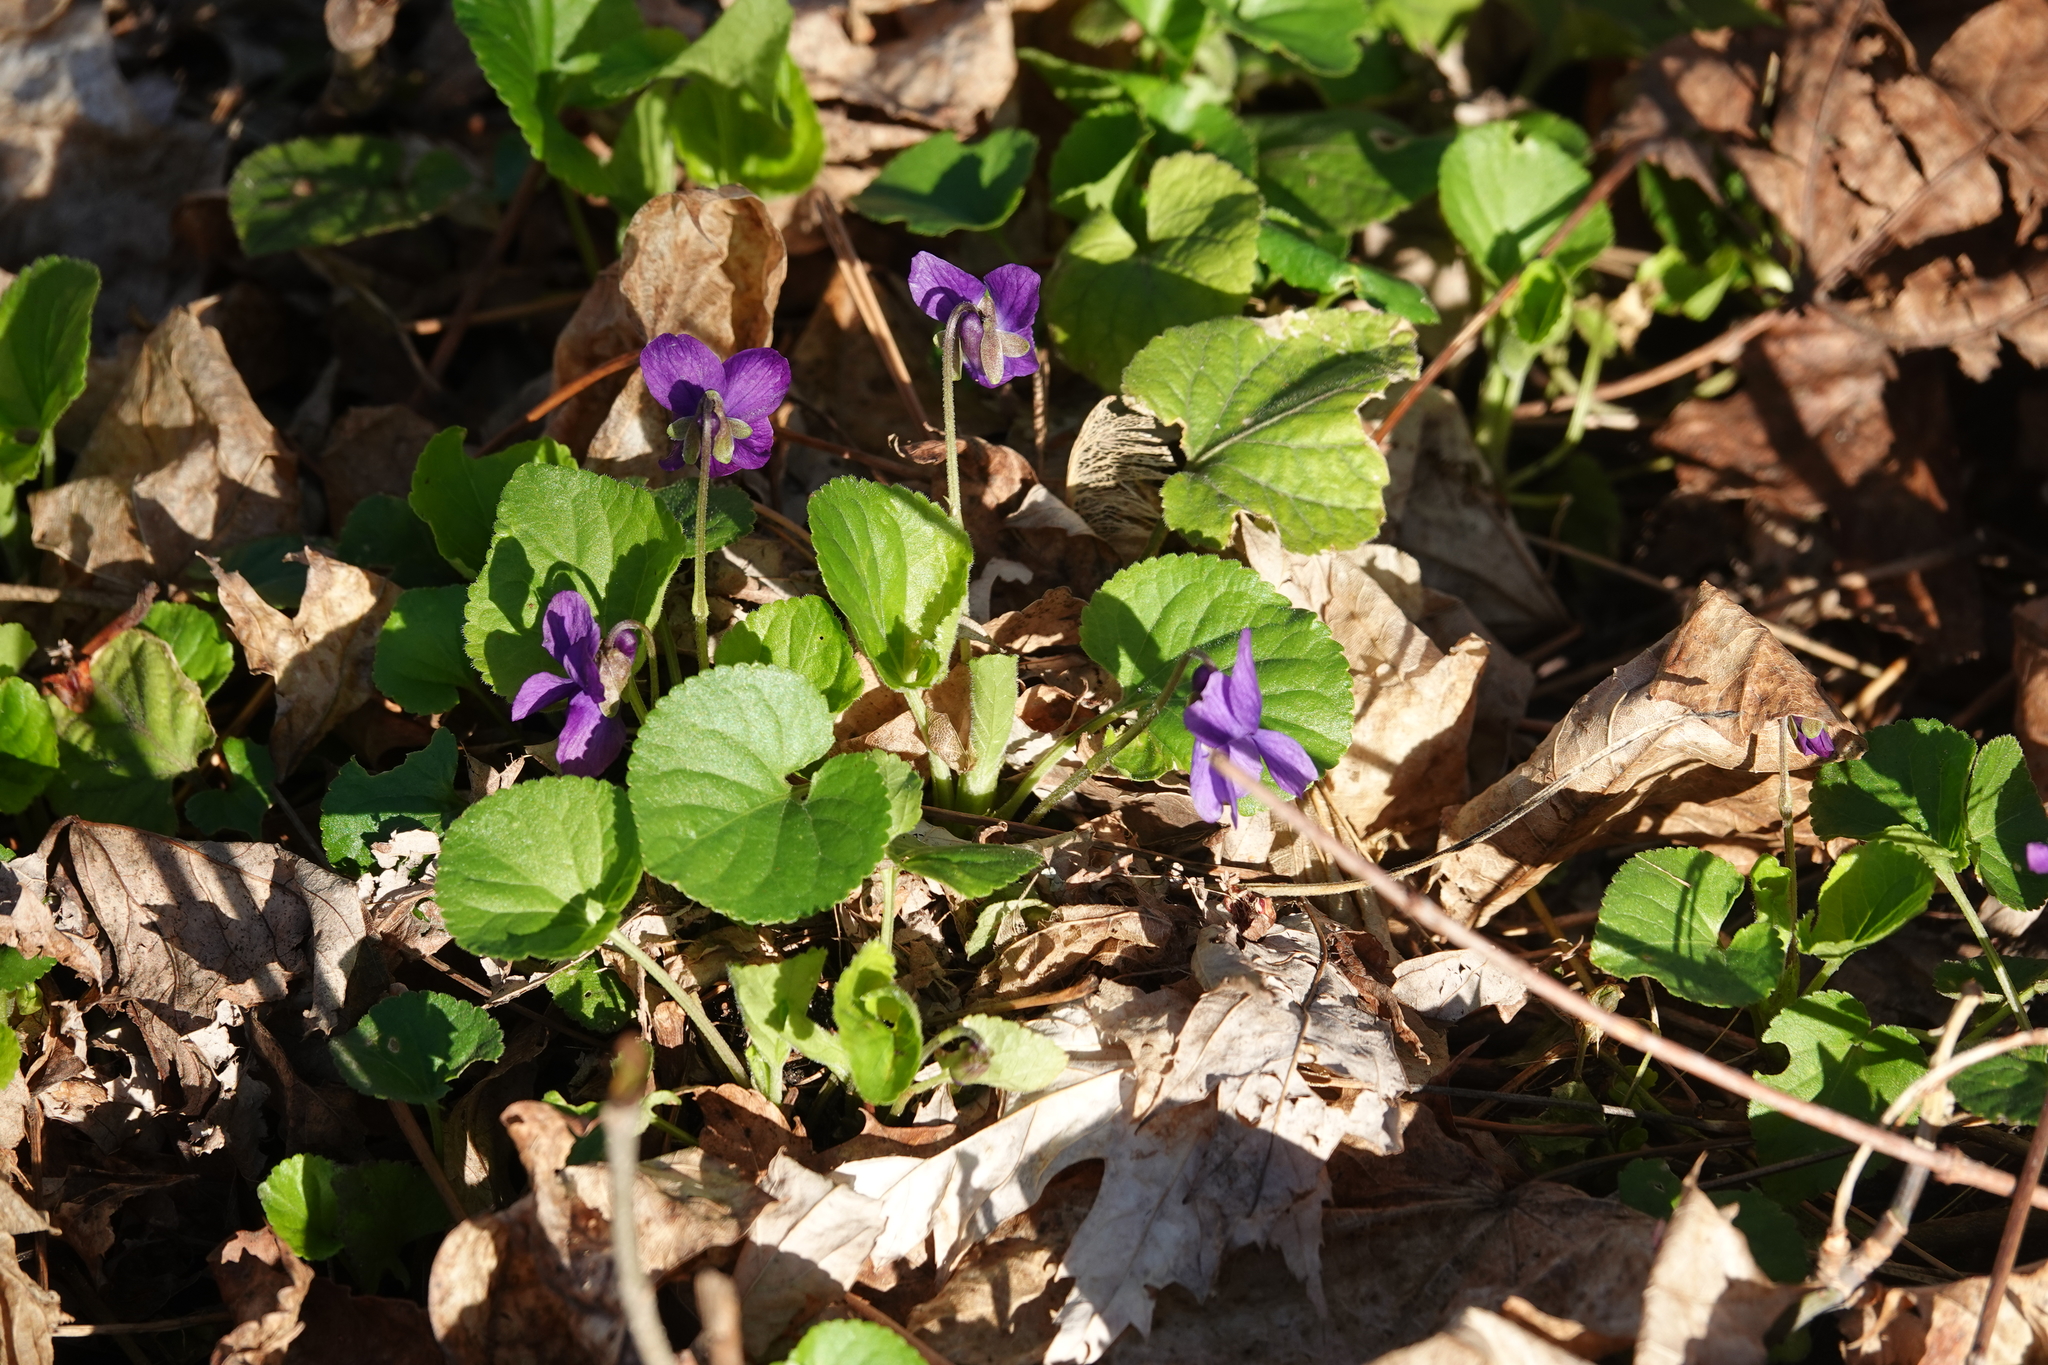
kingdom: Plantae
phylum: Tracheophyta
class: Magnoliopsida
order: Malpighiales
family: Violaceae
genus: Viola
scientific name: Viola odorata
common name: Sweet violet
